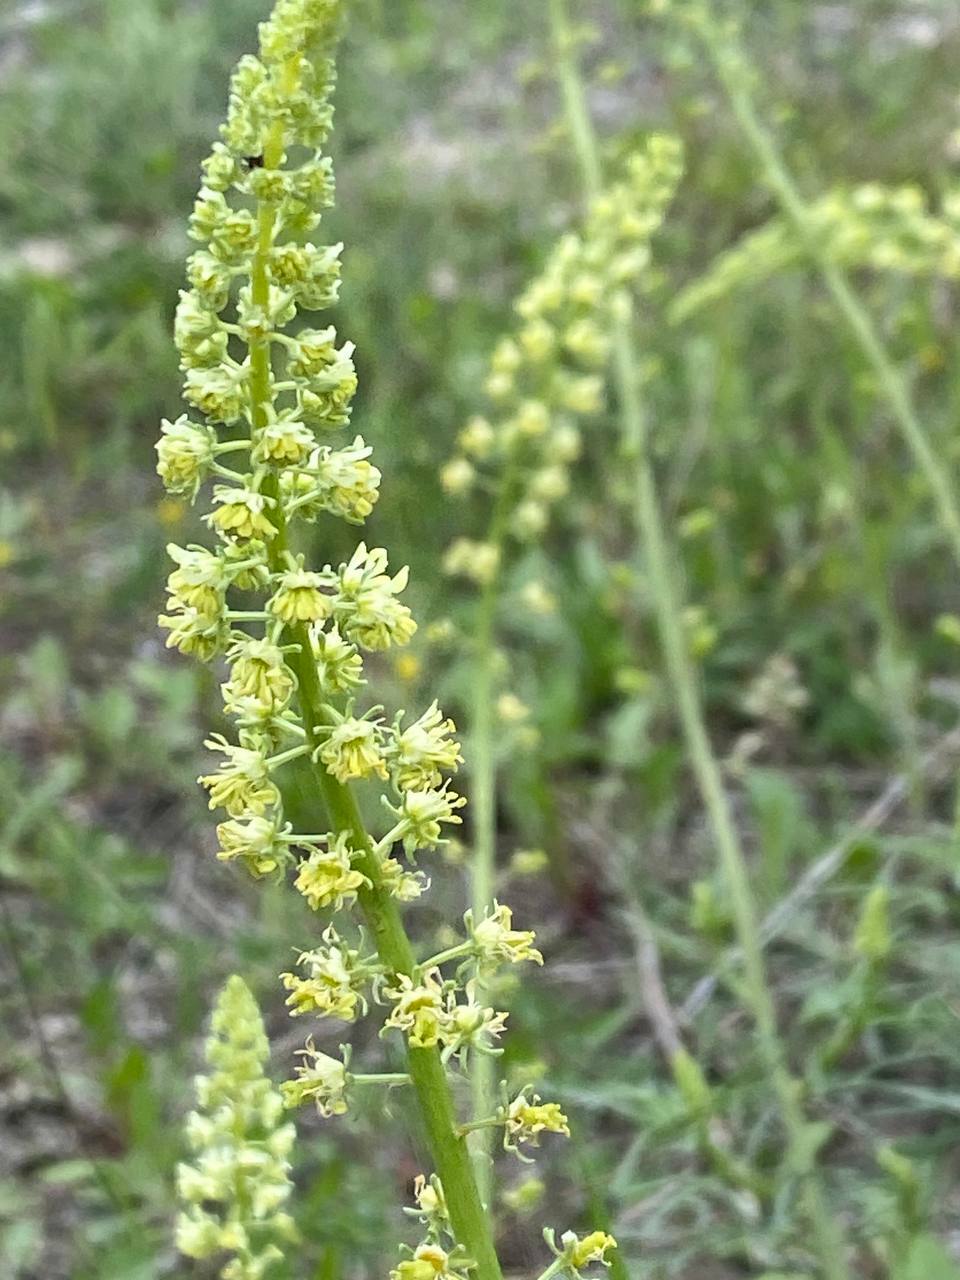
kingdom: Plantae
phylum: Tracheophyta
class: Magnoliopsida
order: Brassicales
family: Resedaceae
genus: Reseda
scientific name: Reseda lutea
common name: Wild mignonette
